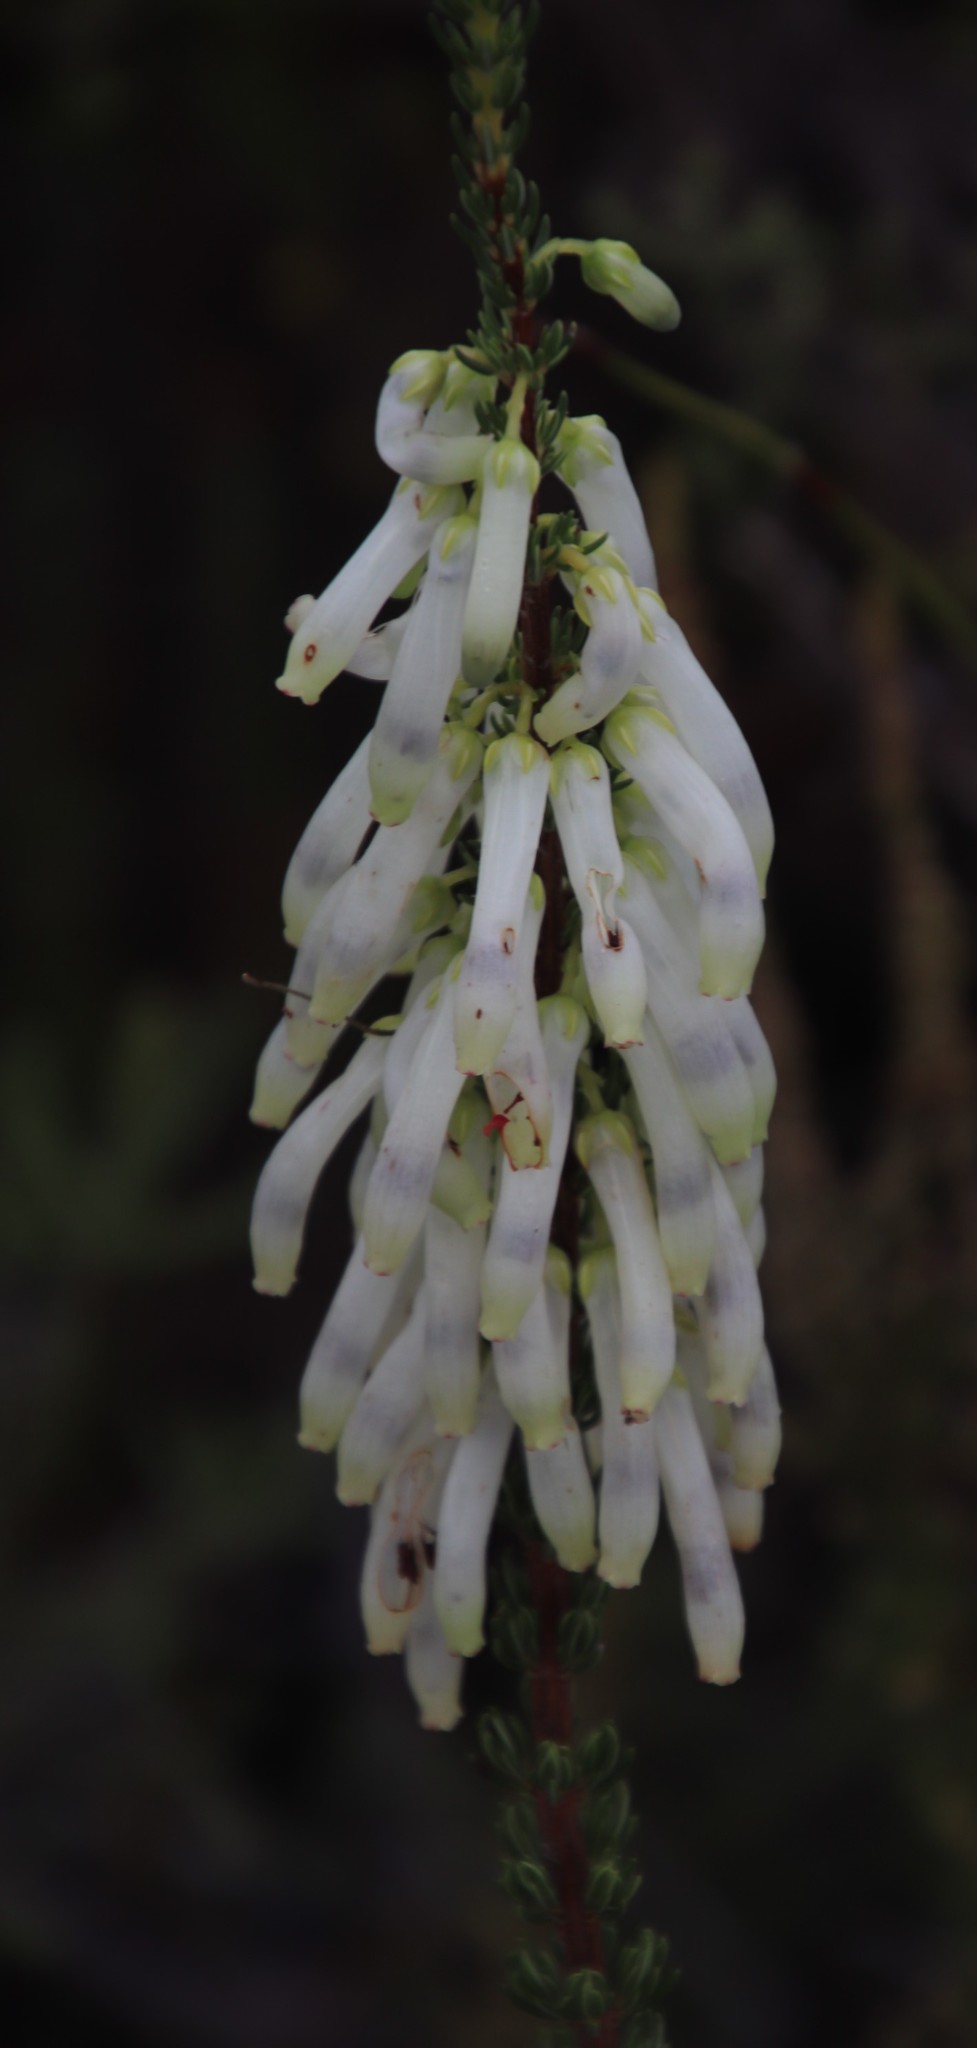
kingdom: Plantae
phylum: Tracheophyta
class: Magnoliopsida
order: Ericales
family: Ericaceae
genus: Erica
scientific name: Erica mammosa
